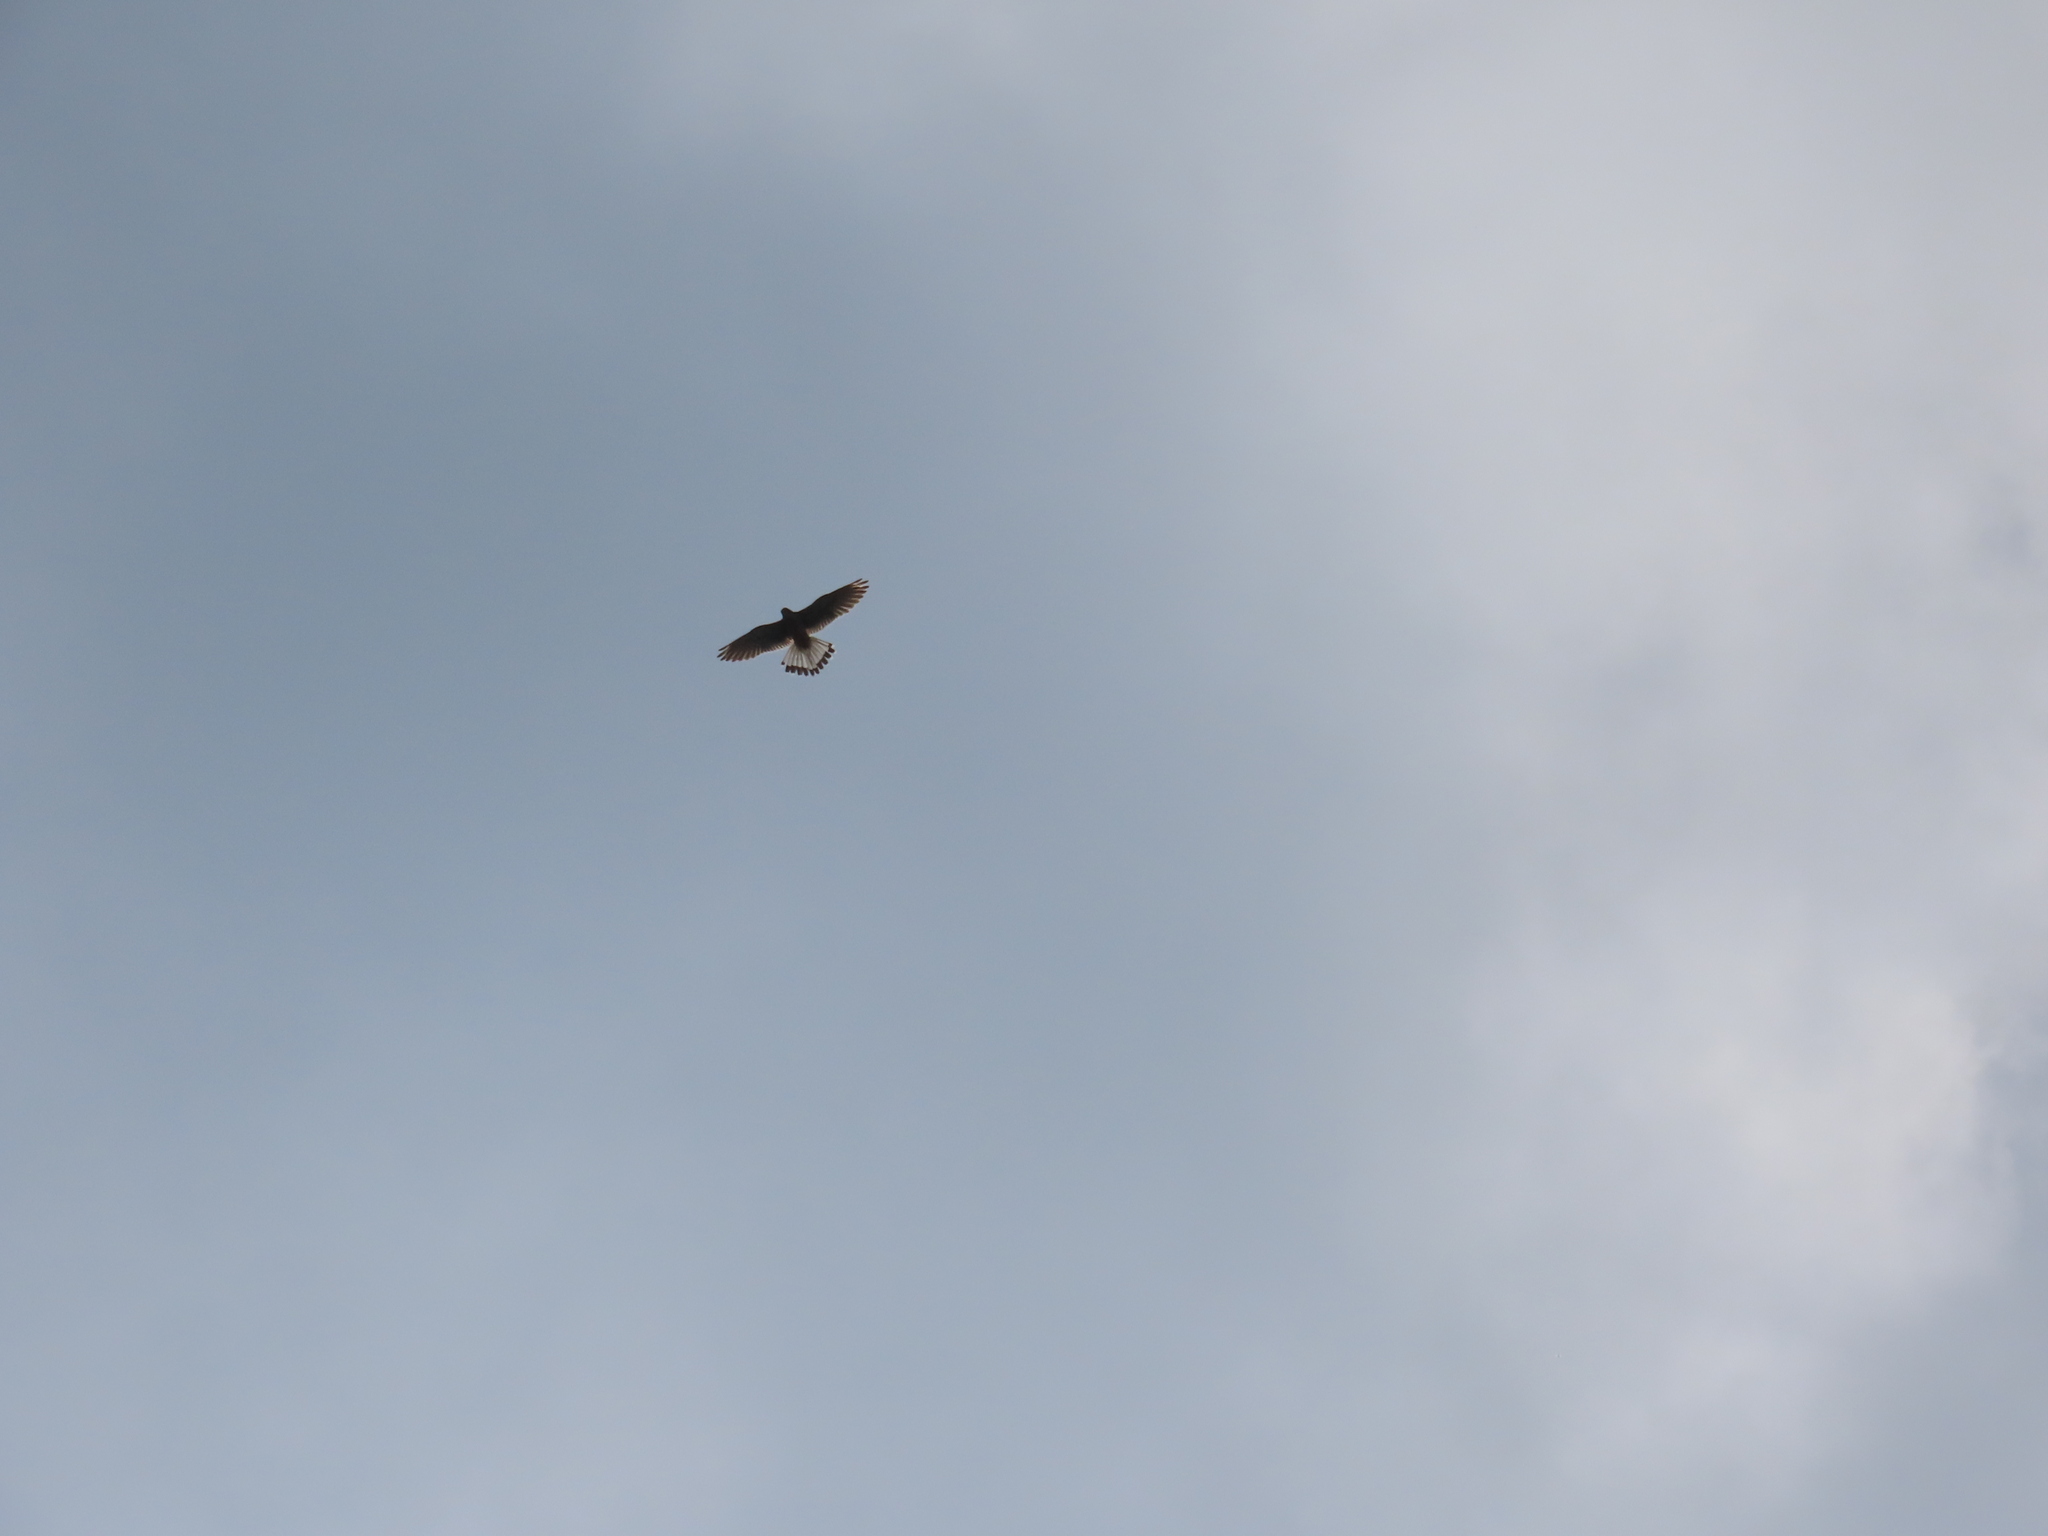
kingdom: Animalia
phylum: Chordata
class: Aves
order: Falconiformes
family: Falconidae
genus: Falco
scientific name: Falco tinnunculus
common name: Common kestrel
